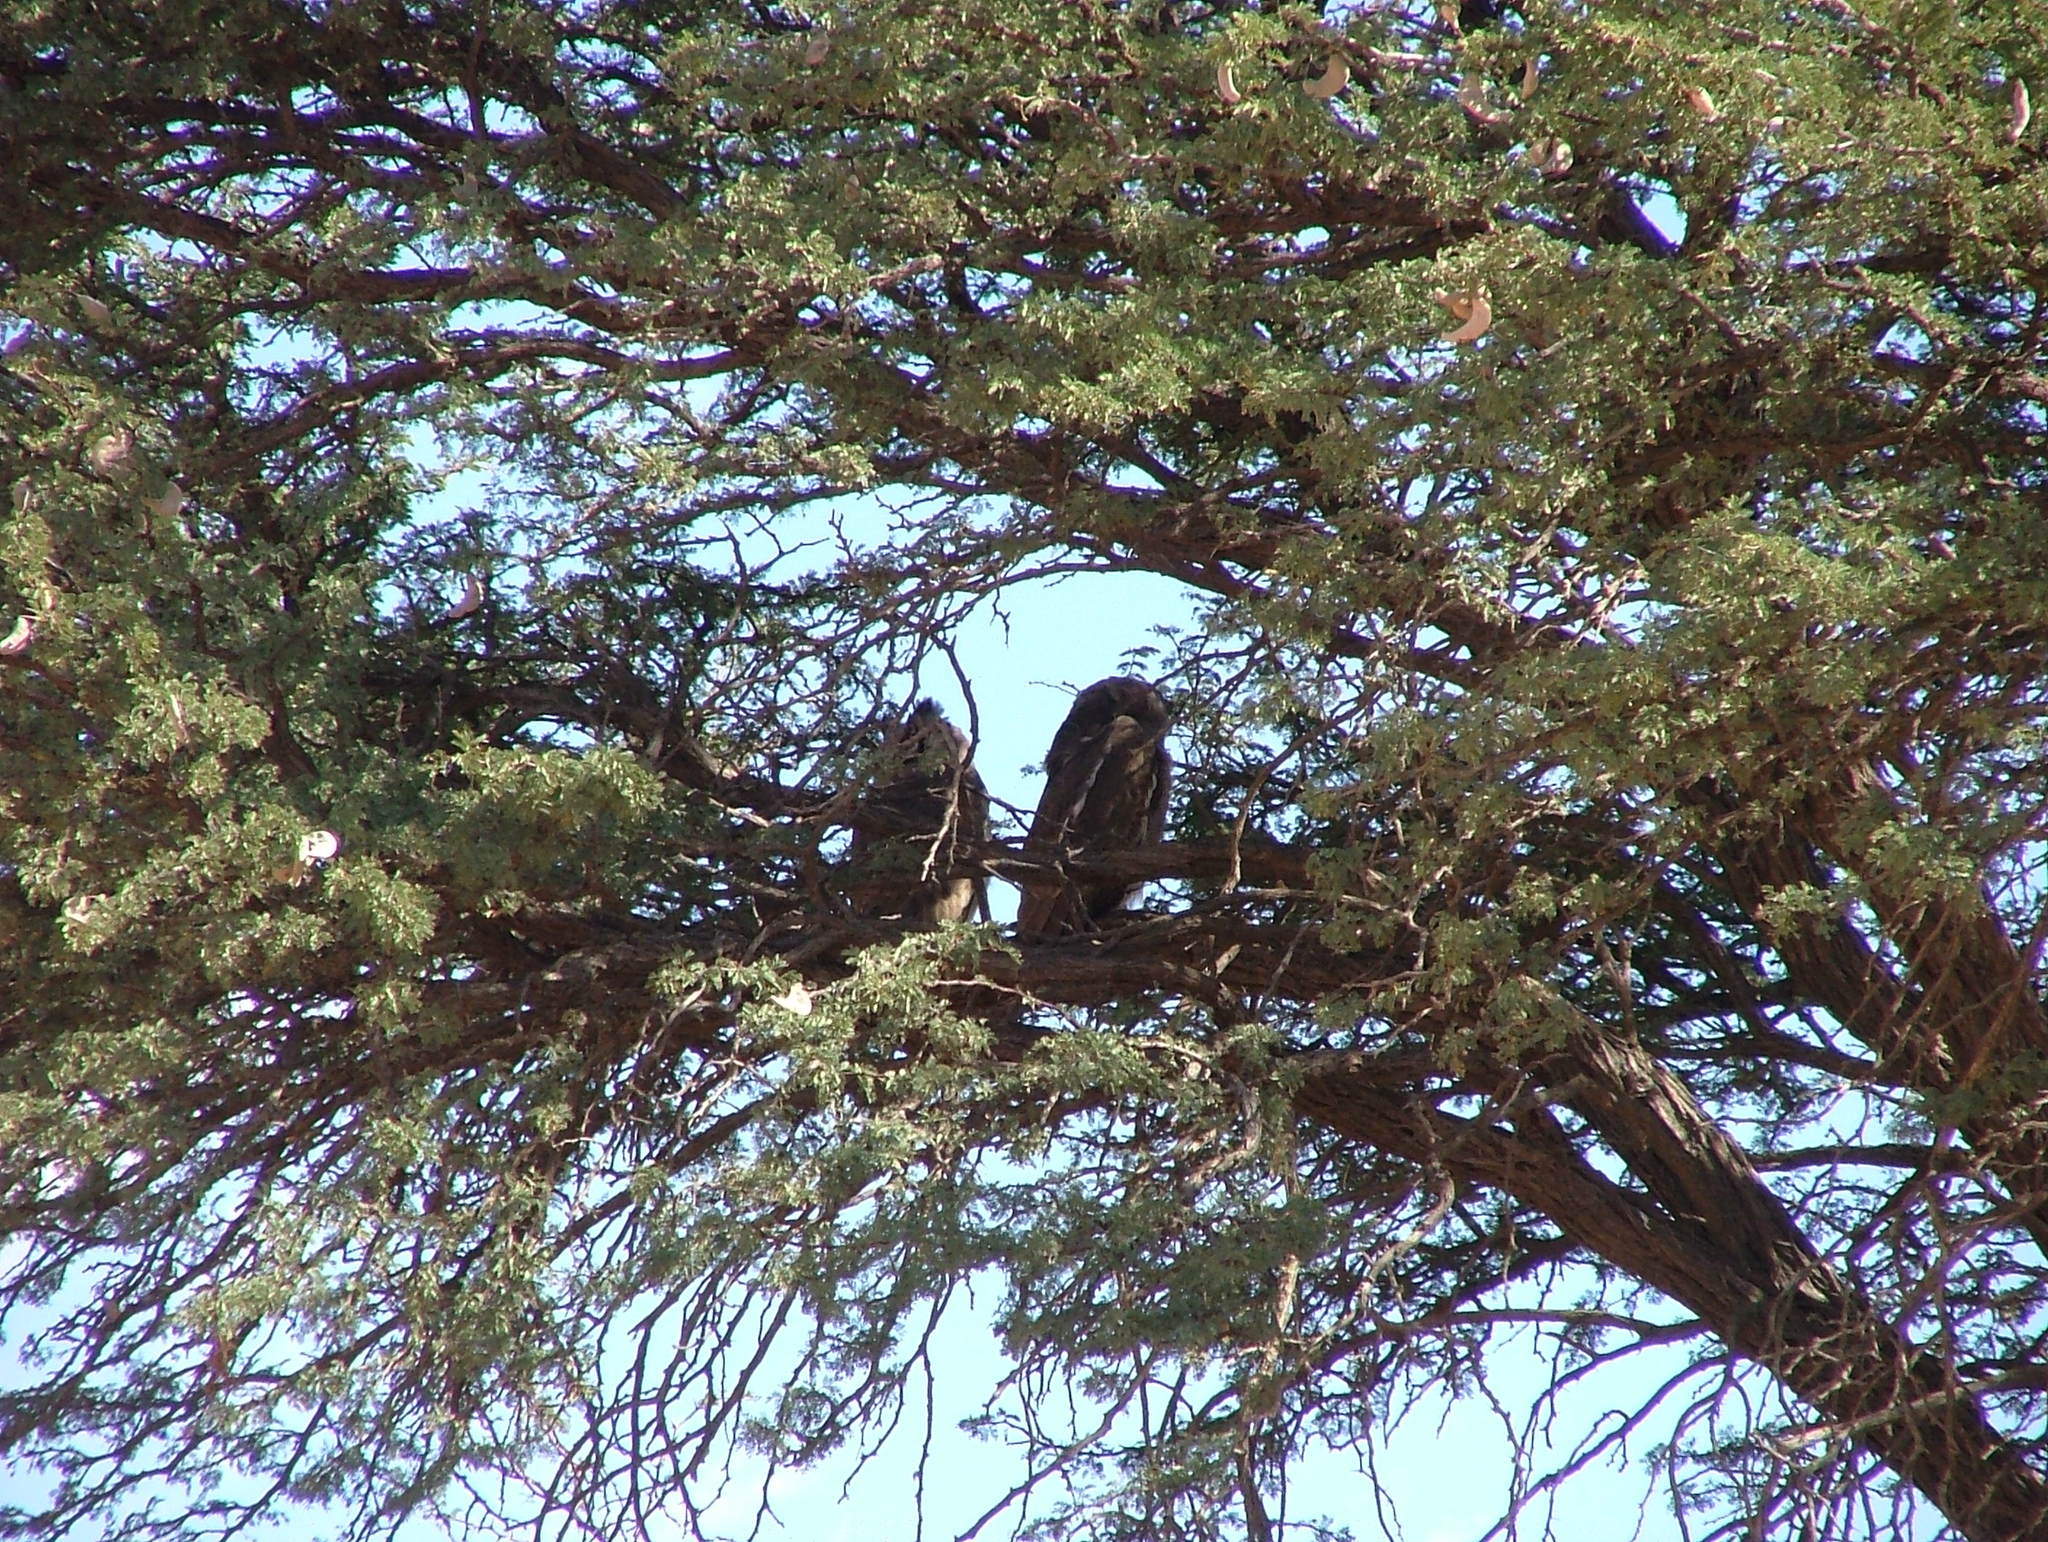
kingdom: Animalia
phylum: Chordata
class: Aves
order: Strigiformes
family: Strigidae
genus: Bubo
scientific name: Bubo lacteus
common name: Verreaux's eagle-owl
